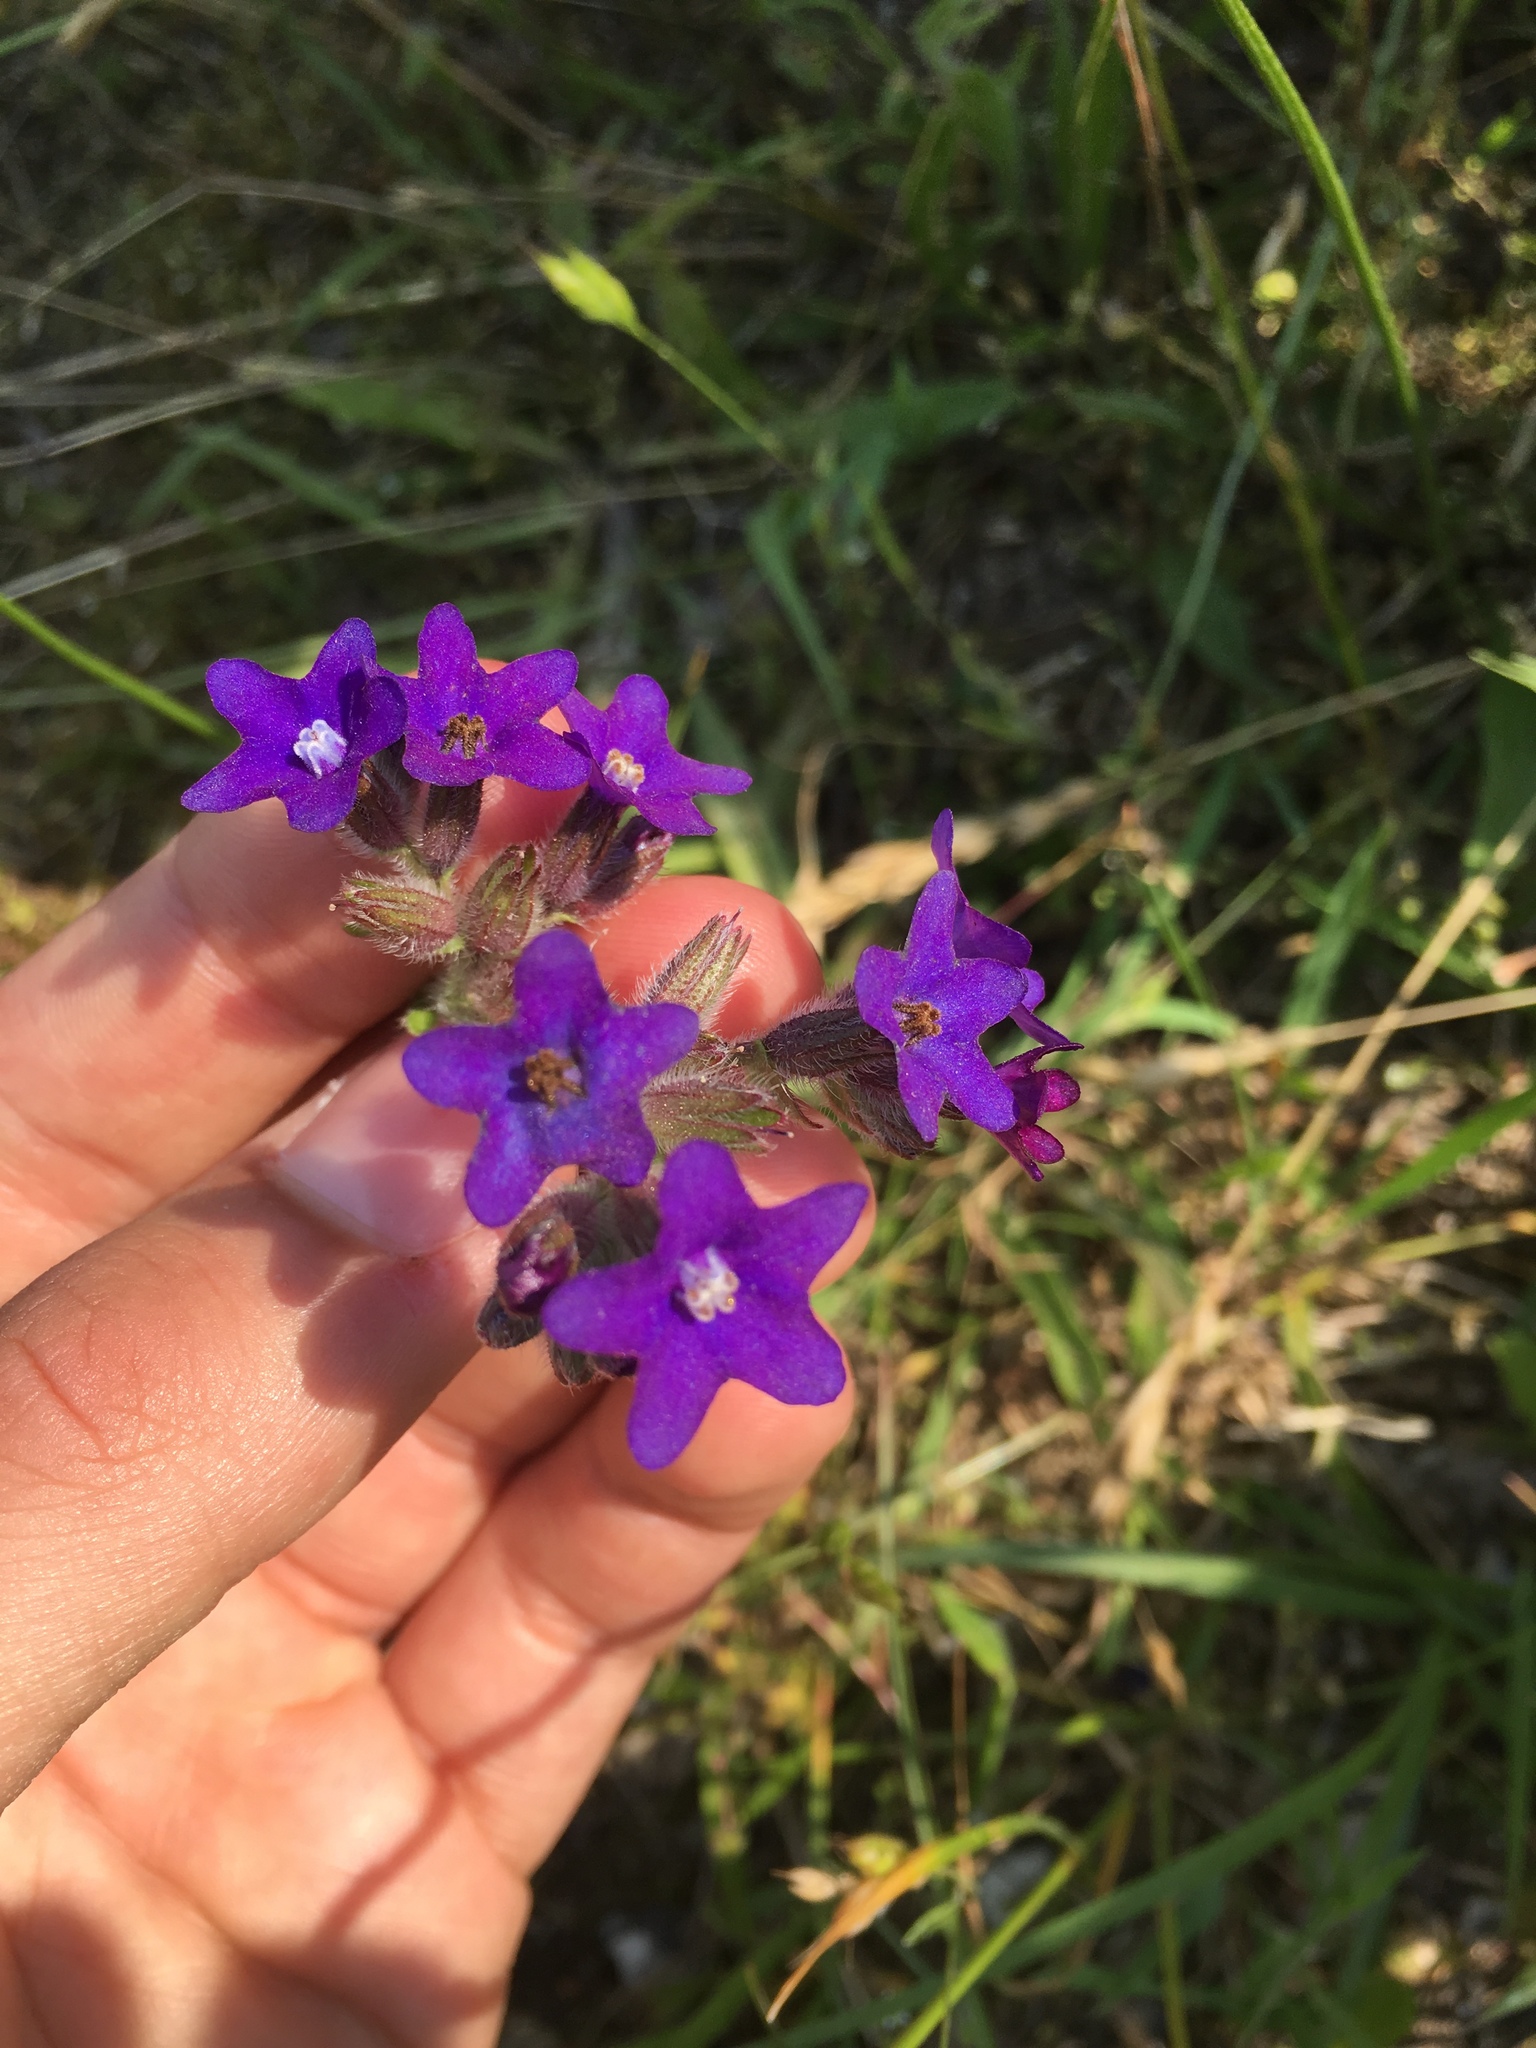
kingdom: Plantae
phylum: Tracheophyta
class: Magnoliopsida
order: Boraginales
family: Boraginaceae
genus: Anchusa
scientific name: Anchusa officinalis
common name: Alkanet
